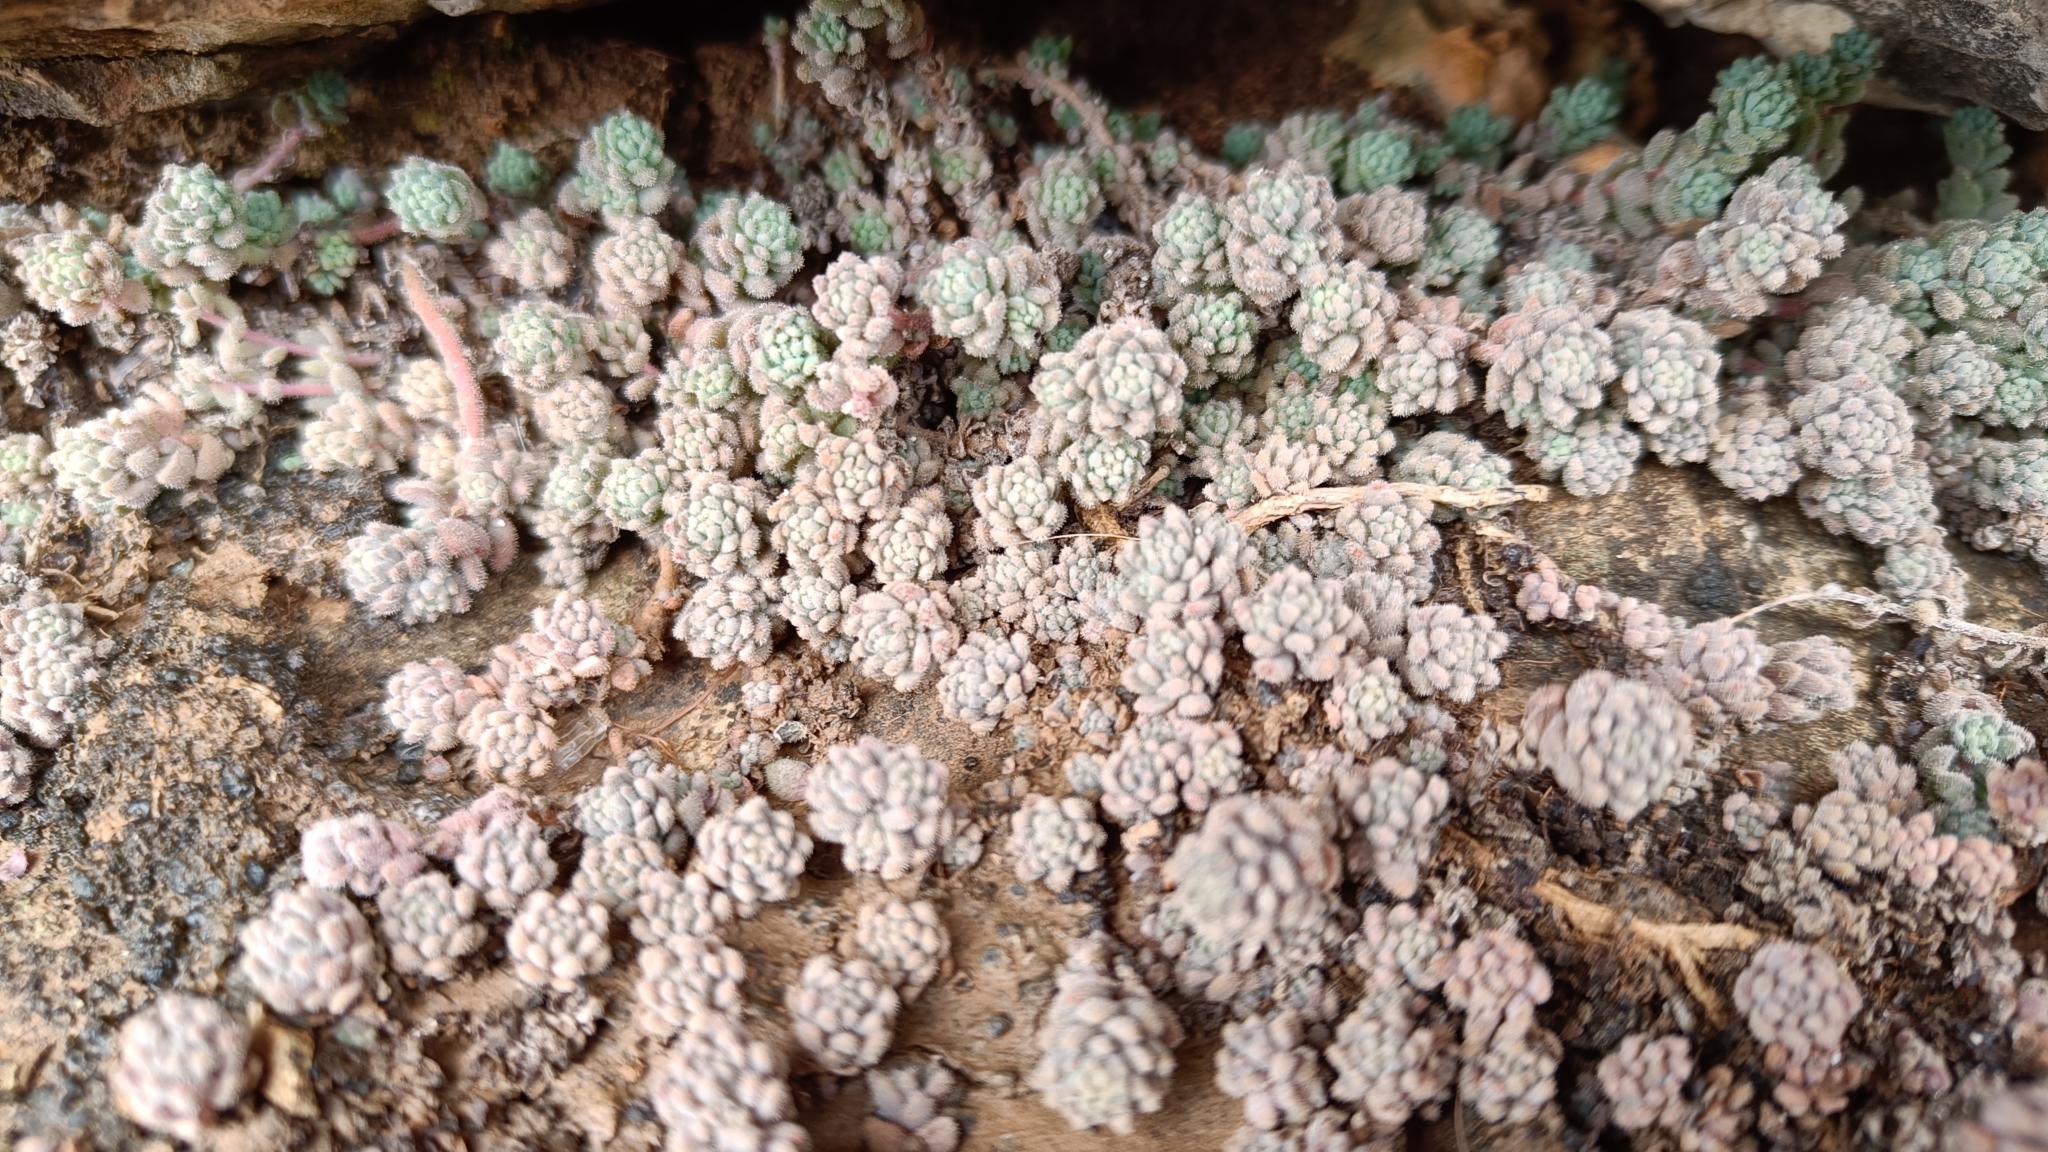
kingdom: Plantae
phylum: Tracheophyta
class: Magnoliopsida
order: Saxifragales
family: Crassulaceae
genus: Sedum
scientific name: Sedum dasyphyllum
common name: Thick-leaf stonecrop
